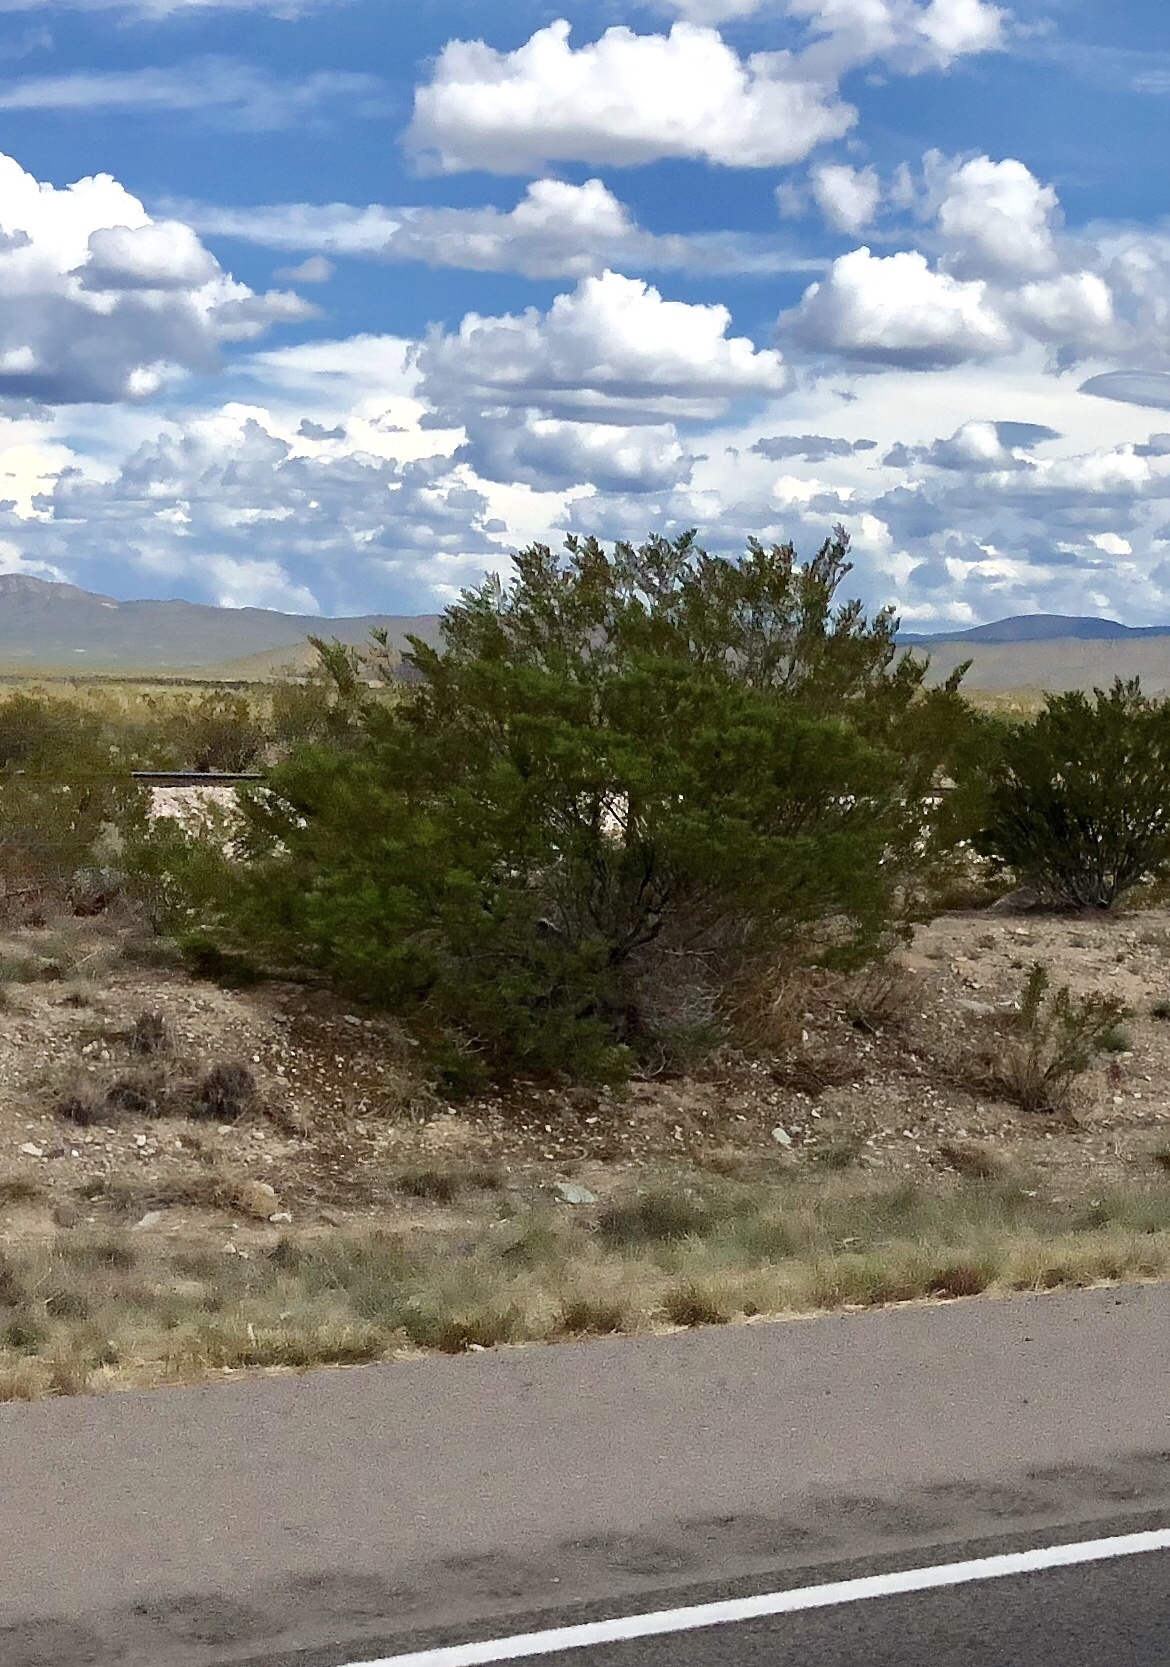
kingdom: Plantae
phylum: Tracheophyta
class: Magnoliopsida
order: Zygophyllales
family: Zygophyllaceae
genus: Larrea
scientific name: Larrea tridentata
